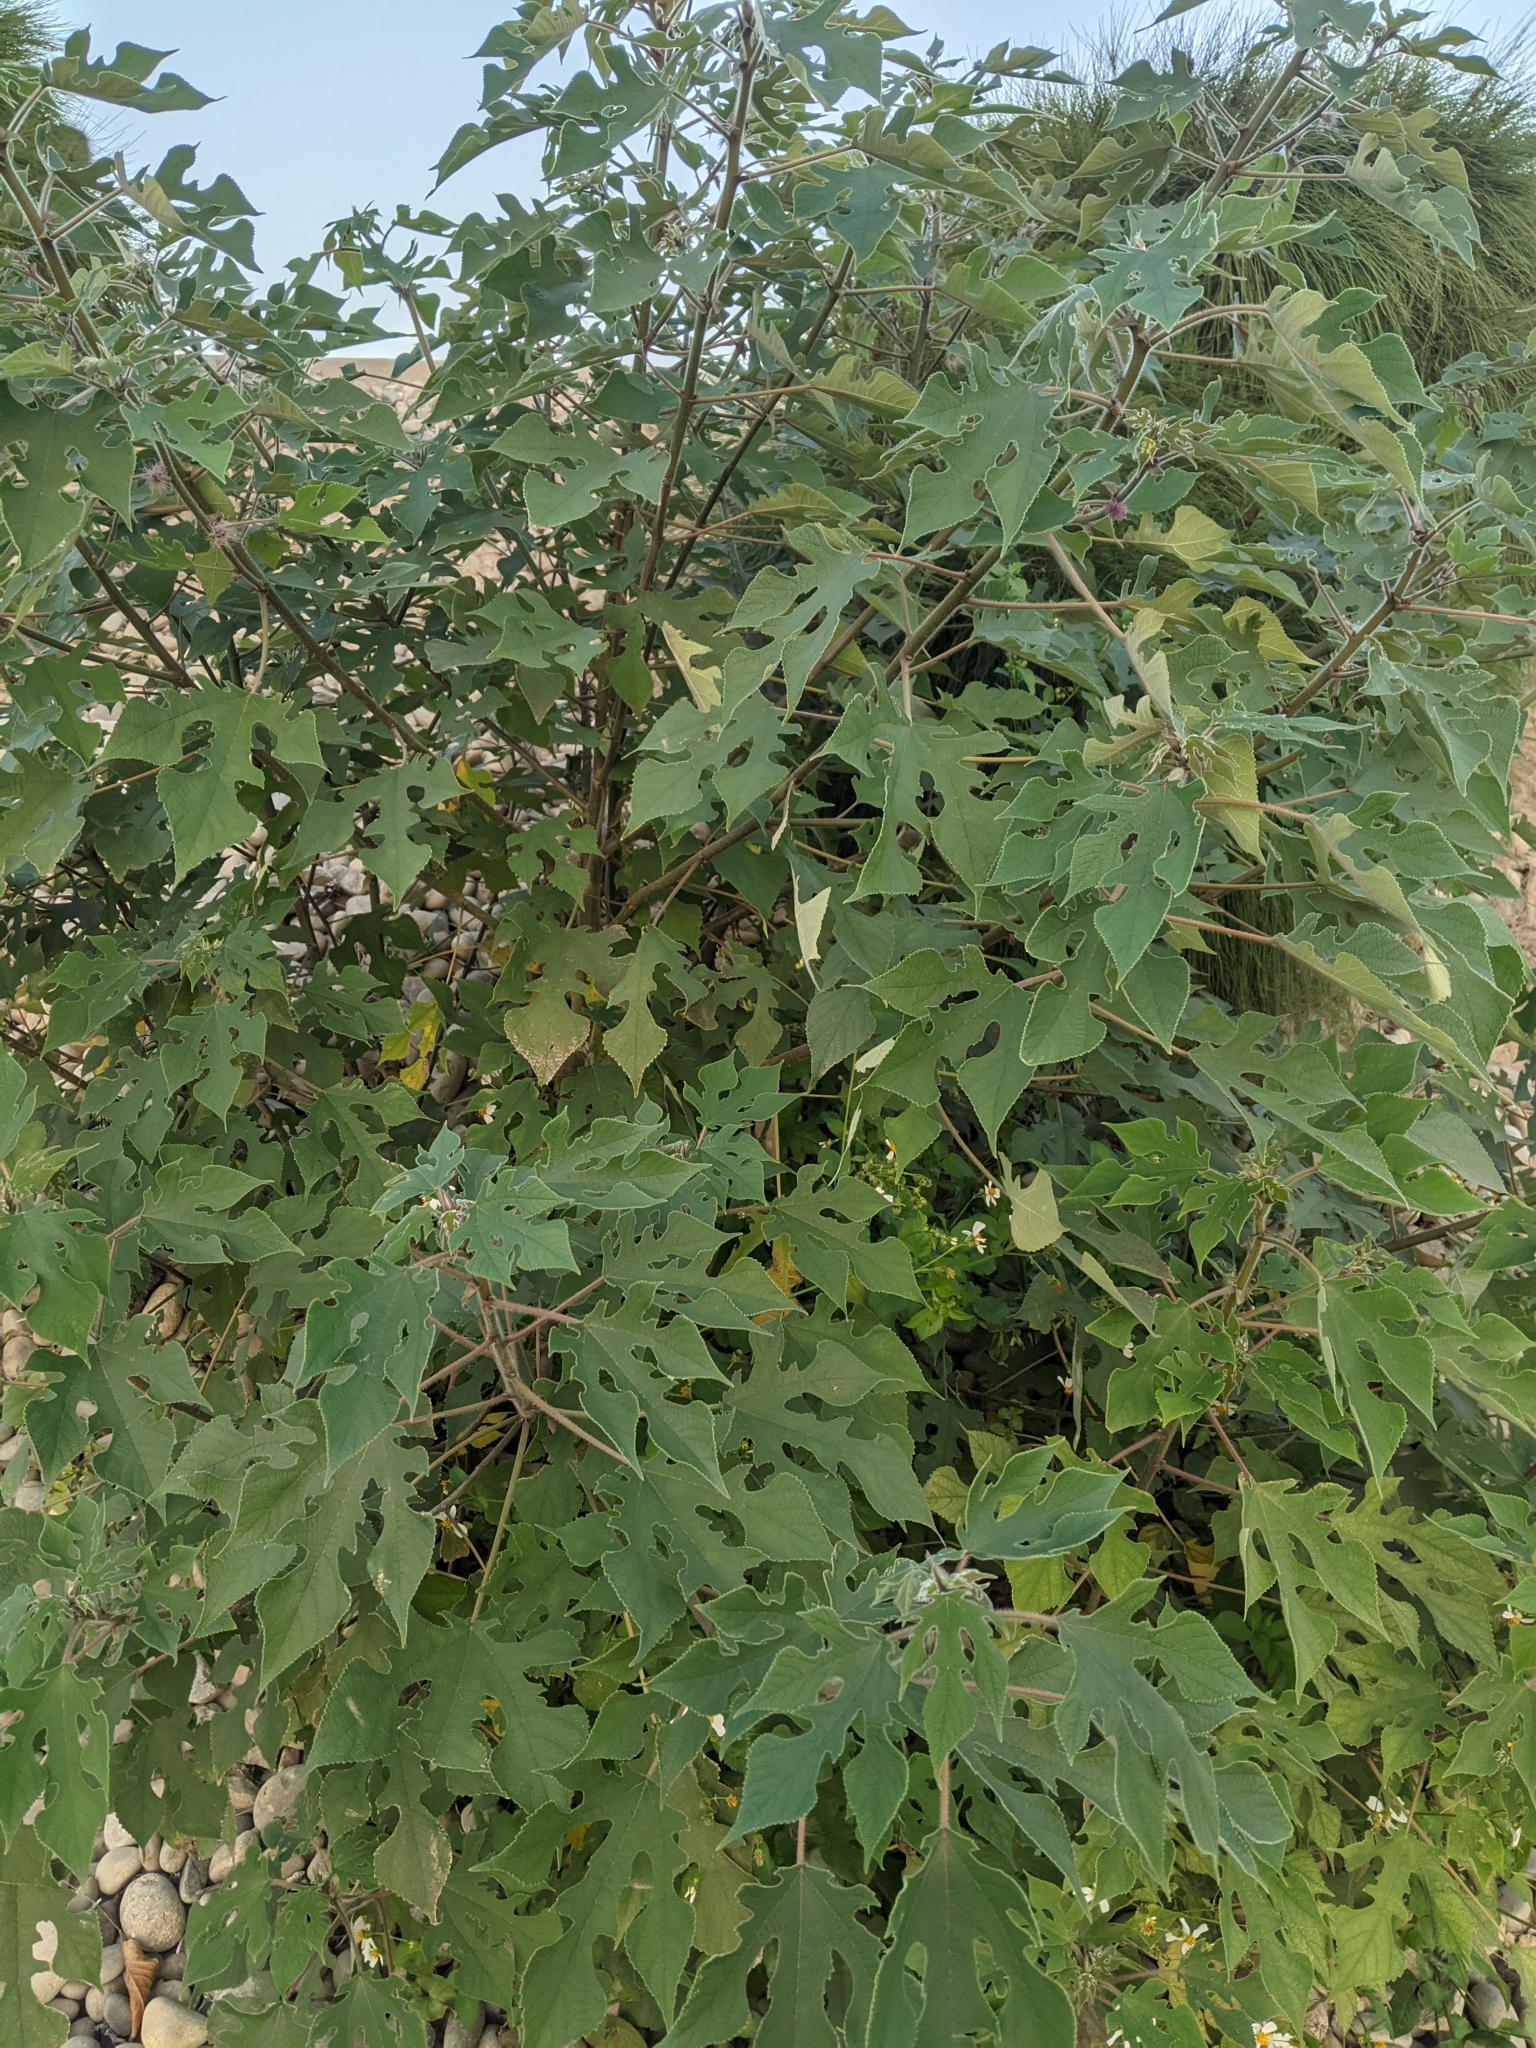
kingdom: Plantae
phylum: Tracheophyta
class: Magnoliopsida
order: Rosales
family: Moraceae
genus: Broussonetia
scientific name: Broussonetia papyrifera
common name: Paper mulberry
